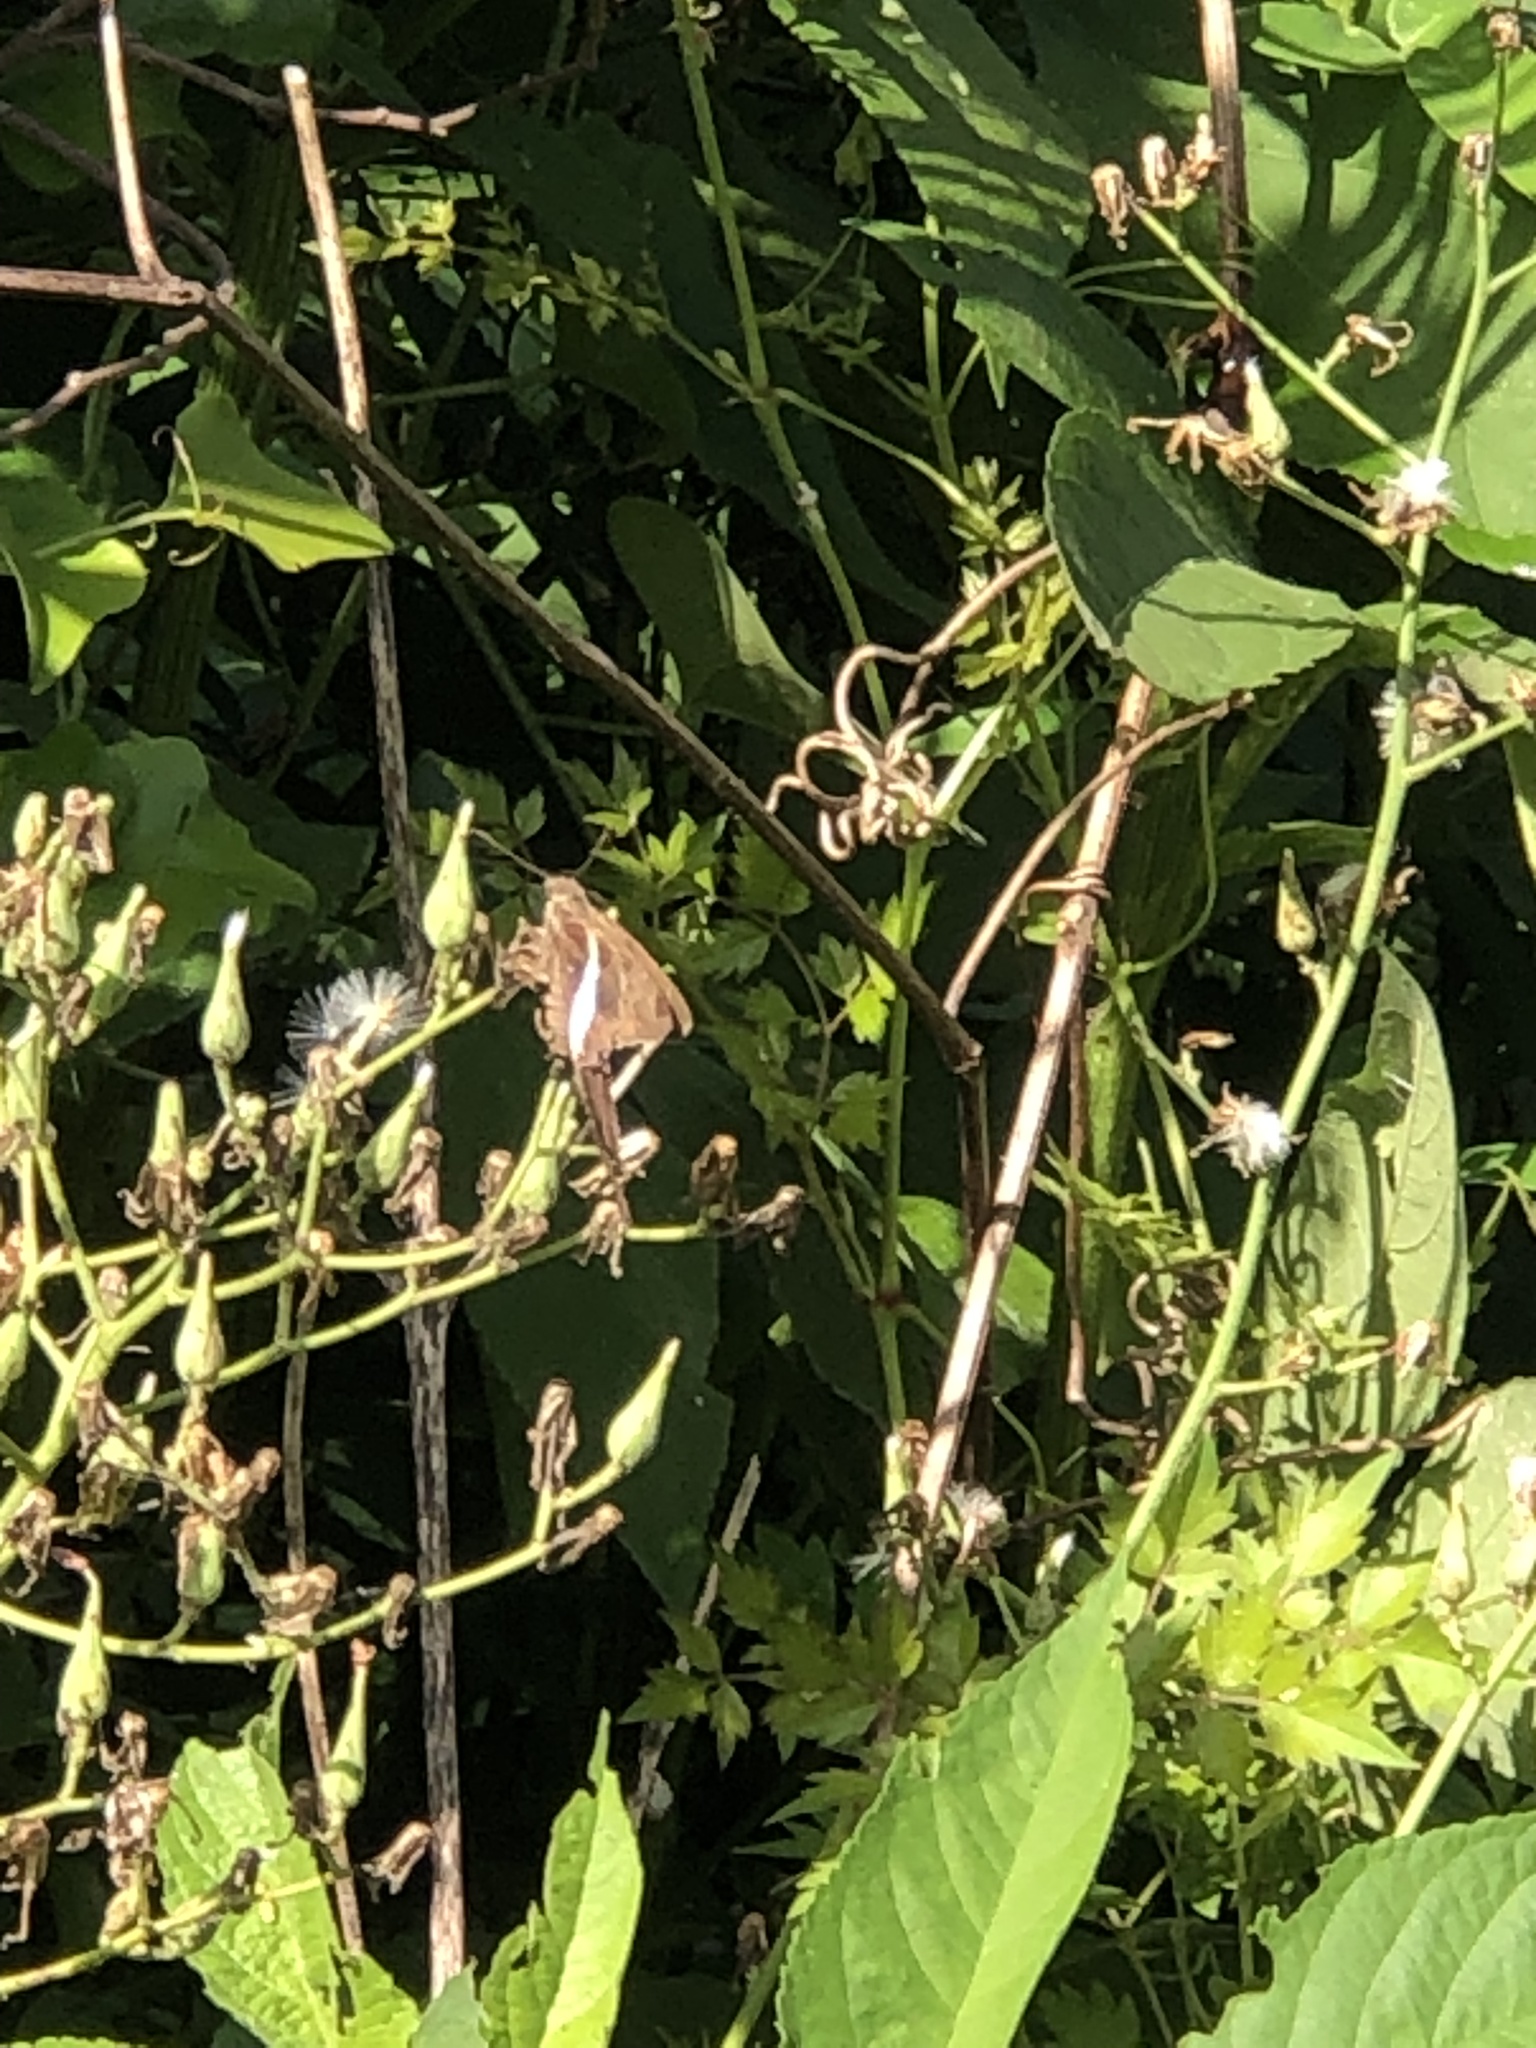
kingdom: Animalia
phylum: Arthropoda
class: Insecta
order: Lepidoptera
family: Hesperiidae
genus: Chioides
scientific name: Chioides catillus
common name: Silverbanded skipper
